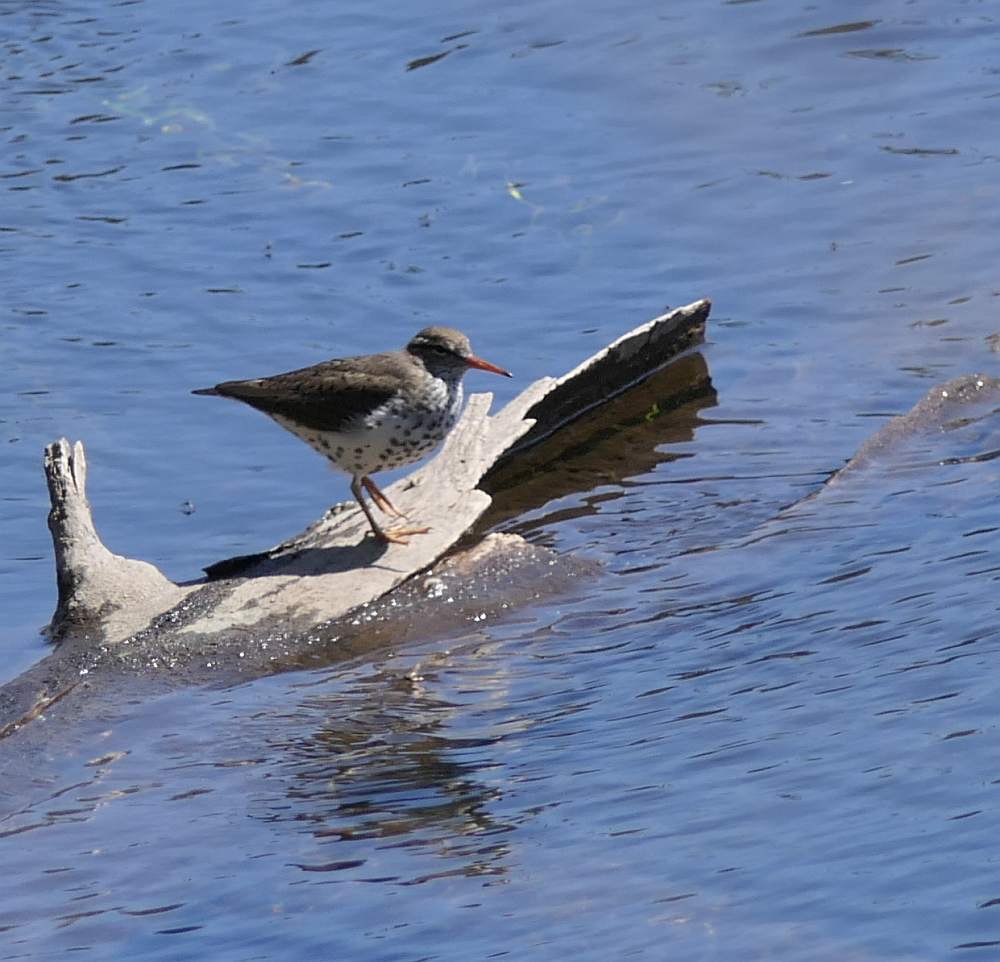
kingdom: Animalia
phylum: Chordata
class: Aves
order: Charadriiformes
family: Scolopacidae
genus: Actitis
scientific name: Actitis macularius
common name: Spotted sandpiper
